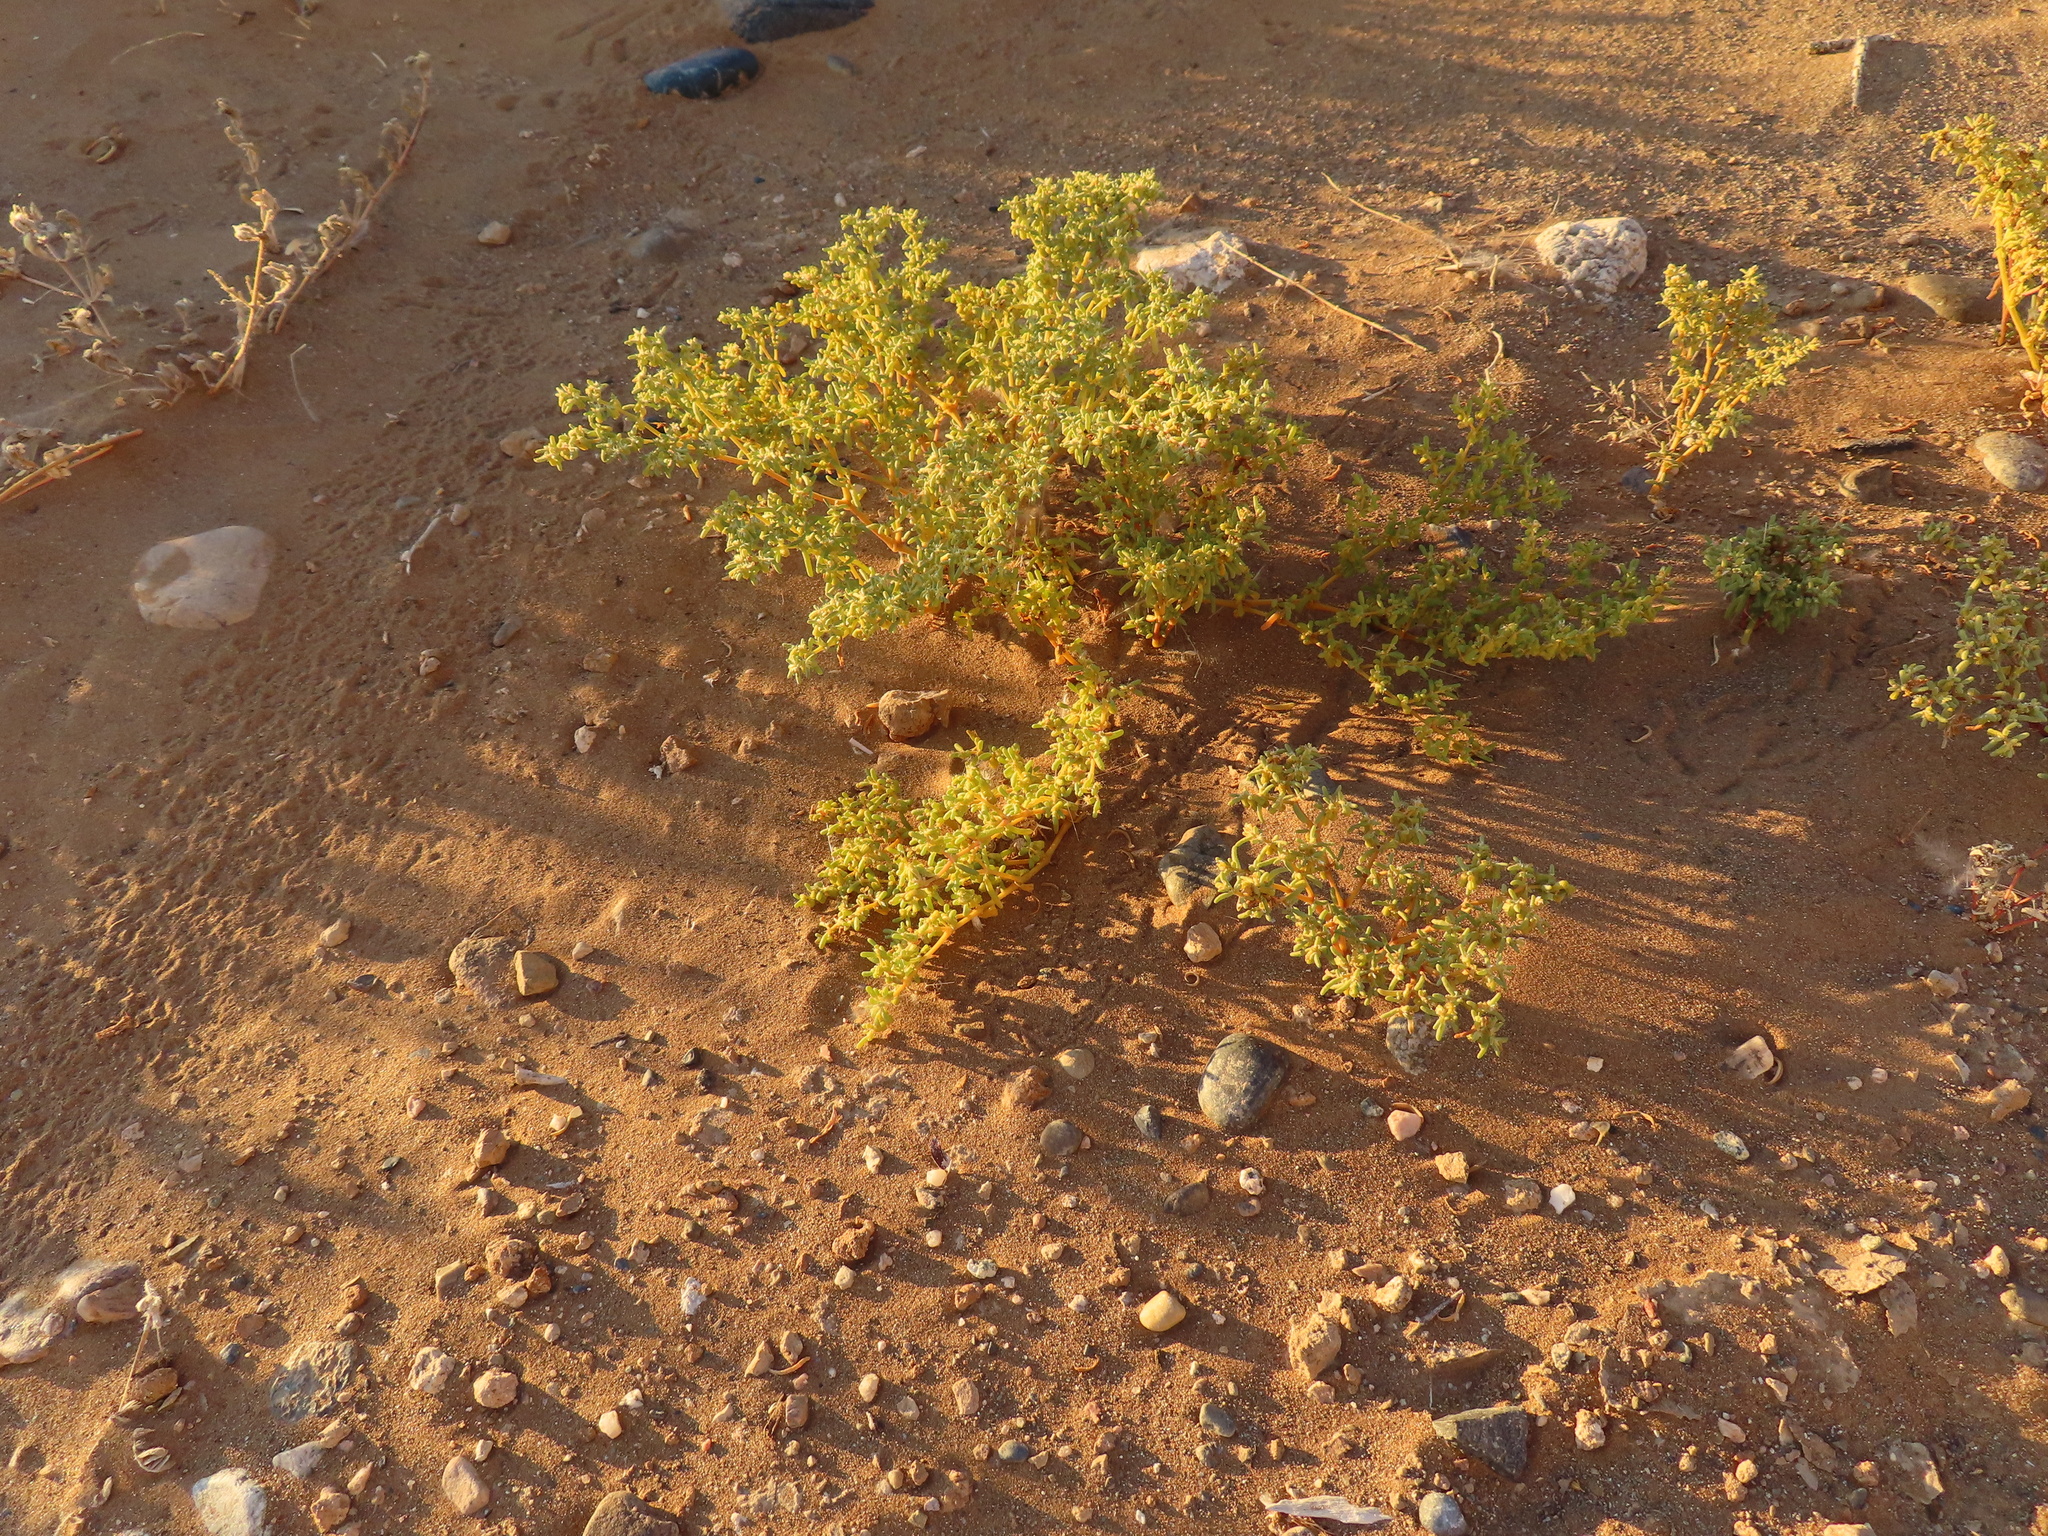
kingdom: Plantae
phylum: Tracheophyta
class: Magnoliopsida
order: Zygophyllales
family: Zygophyllaceae
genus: Tetraena
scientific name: Tetraena simplex
